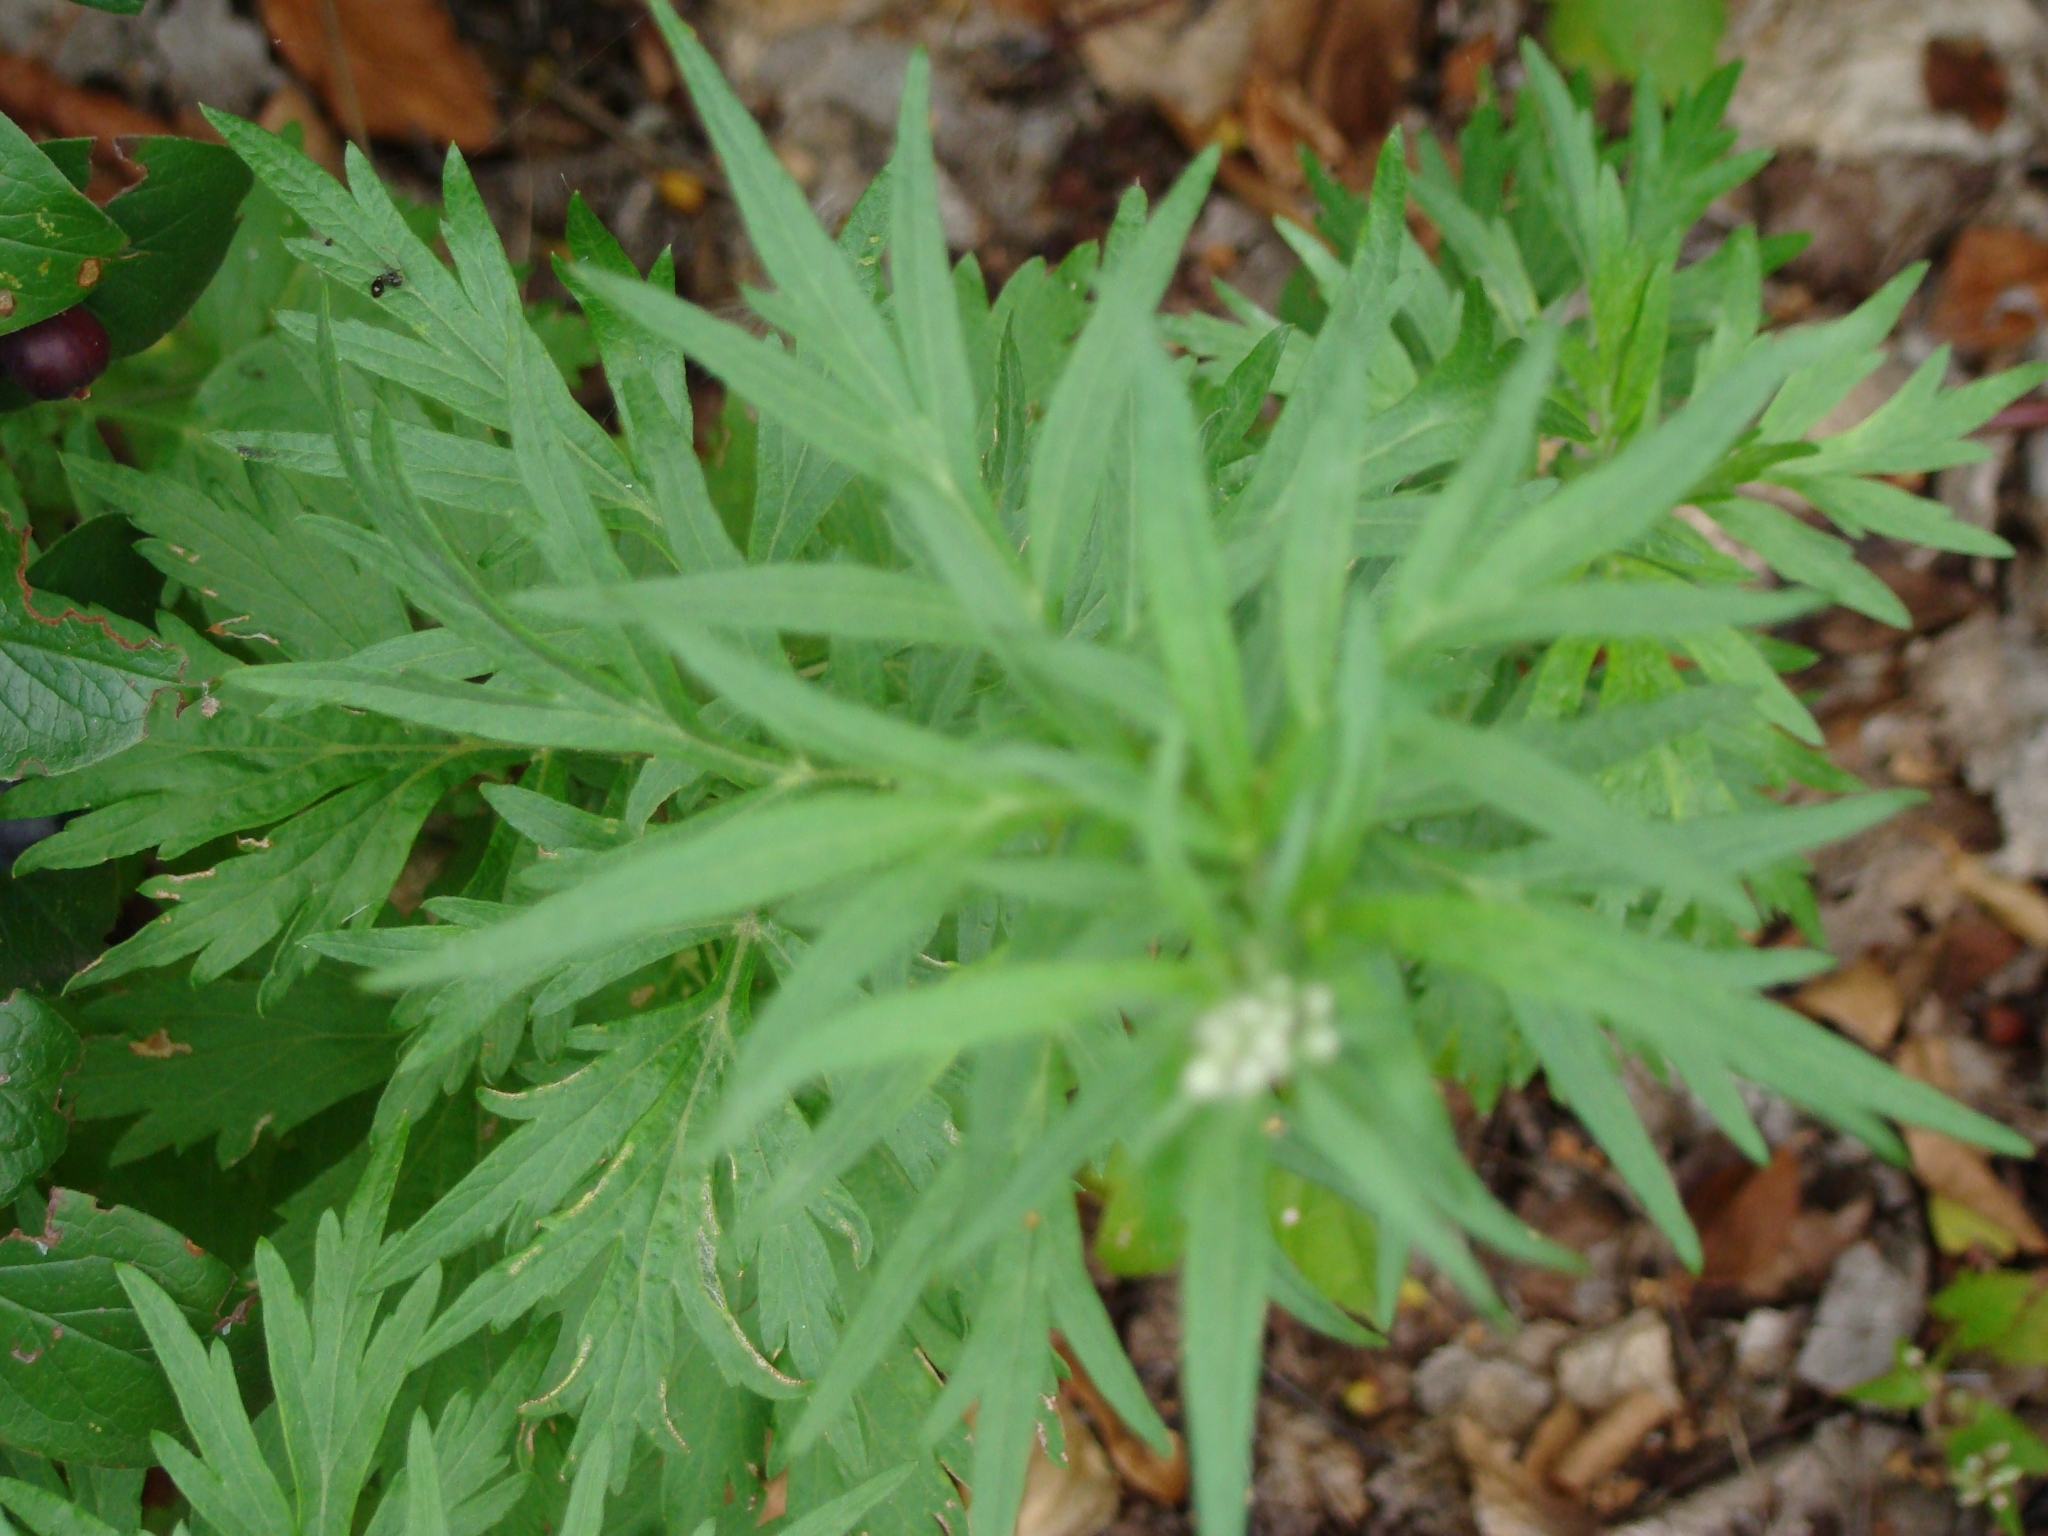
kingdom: Plantae
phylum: Tracheophyta
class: Magnoliopsida
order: Asterales
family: Asteraceae
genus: Artemisia
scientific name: Artemisia vulgaris
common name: Mugwort
